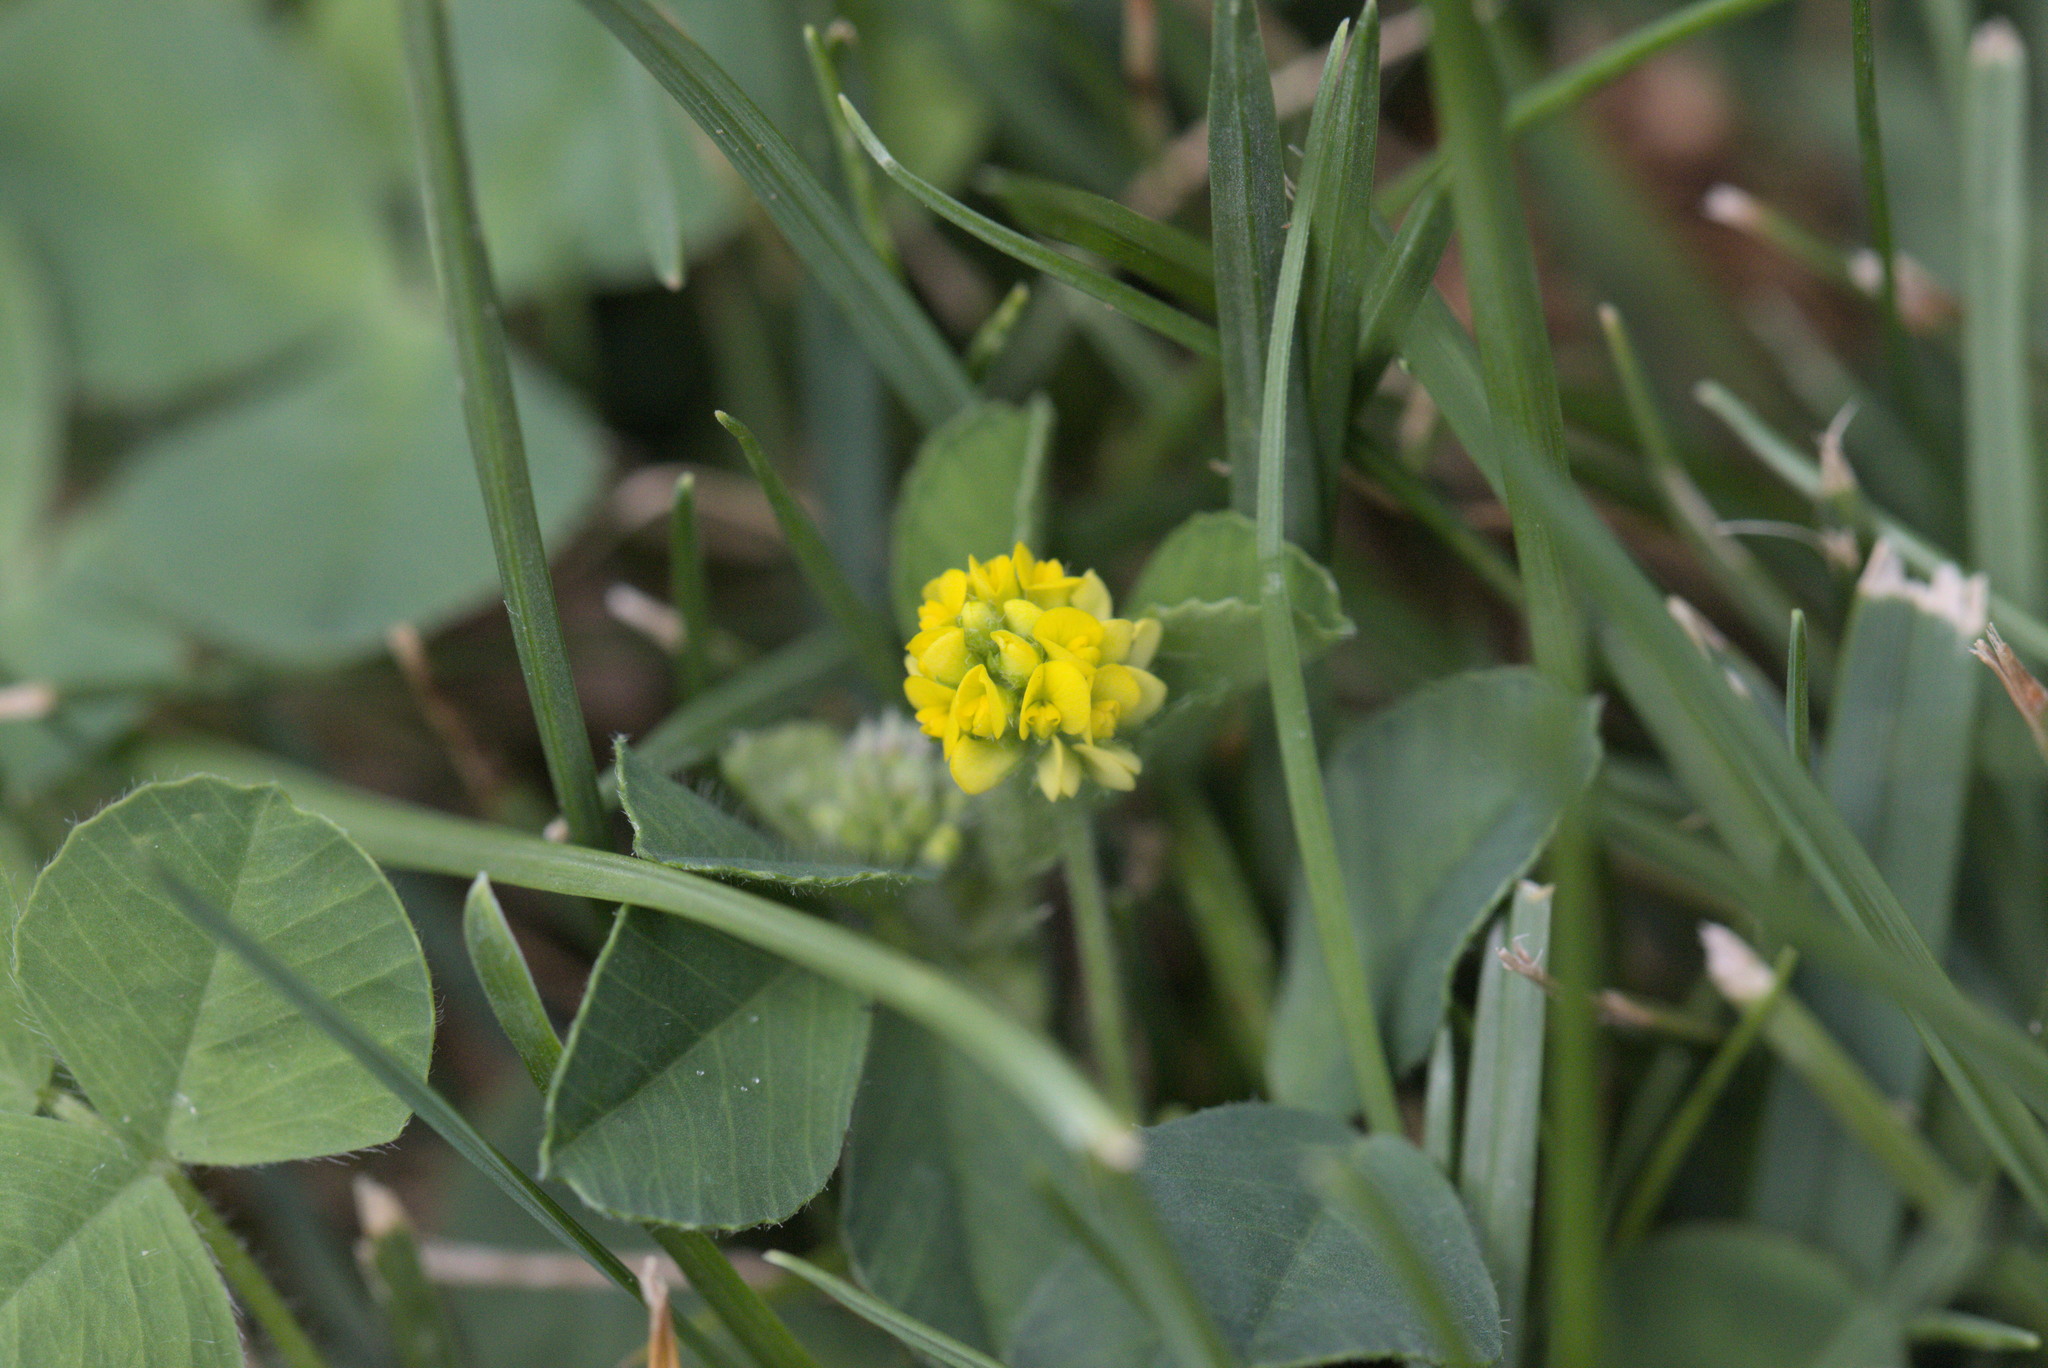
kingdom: Plantae
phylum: Tracheophyta
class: Magnoliopsida
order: Fabales
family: Fabaceae
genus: Medicago
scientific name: Medicago lupulina
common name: Black medick
